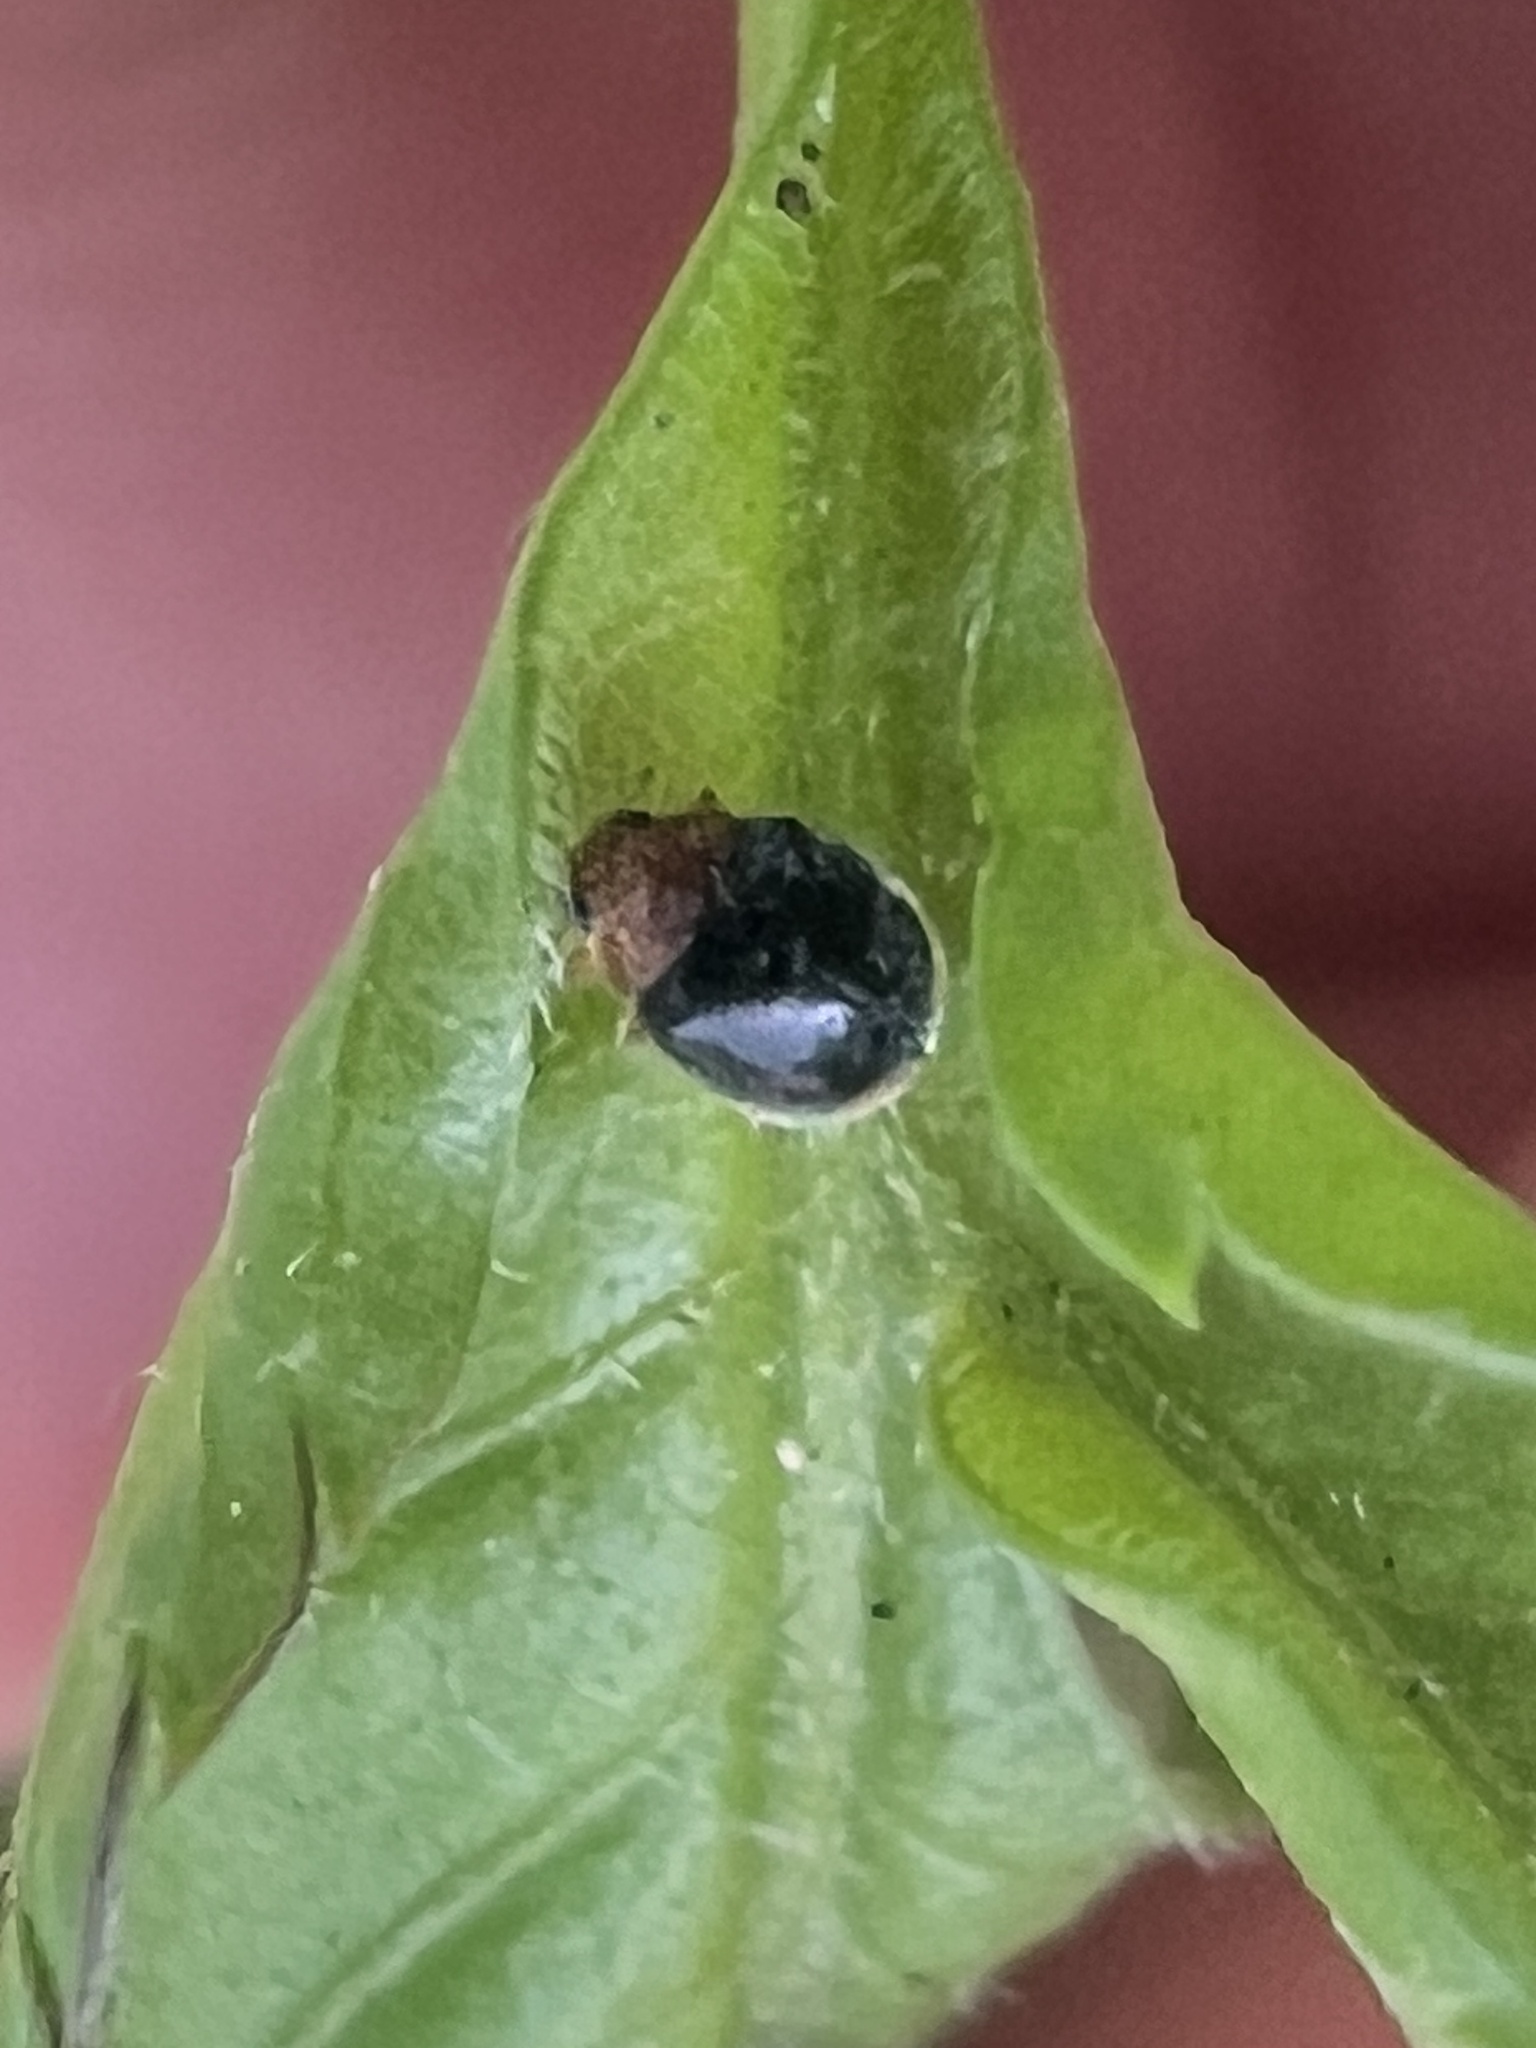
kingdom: Animalia
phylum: Arthropoda
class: Insecta
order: Coleoptera
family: Coccinellidae
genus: Rhyzobius
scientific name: Rhyzobius lophanthae
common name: Scale-eating ladybird beetle
